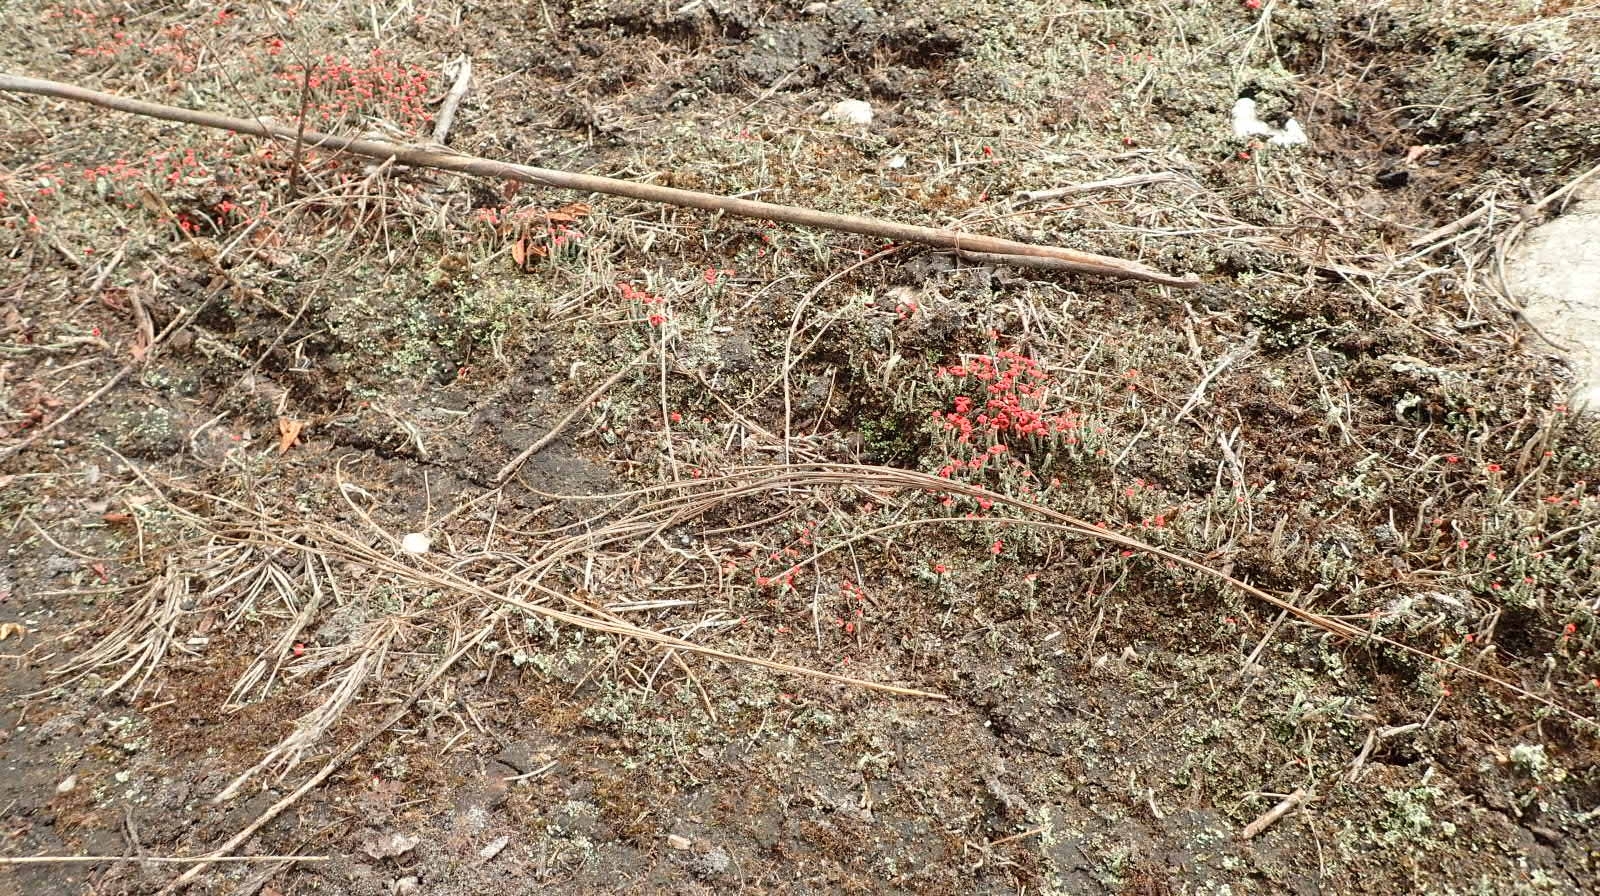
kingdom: Fungi
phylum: Ascomycota
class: Lecanoromycetes
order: Lecanorales
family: Cladoniaceae
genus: Cladonia
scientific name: Cladonia floerkeana
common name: Gritty british soldiers lichen
